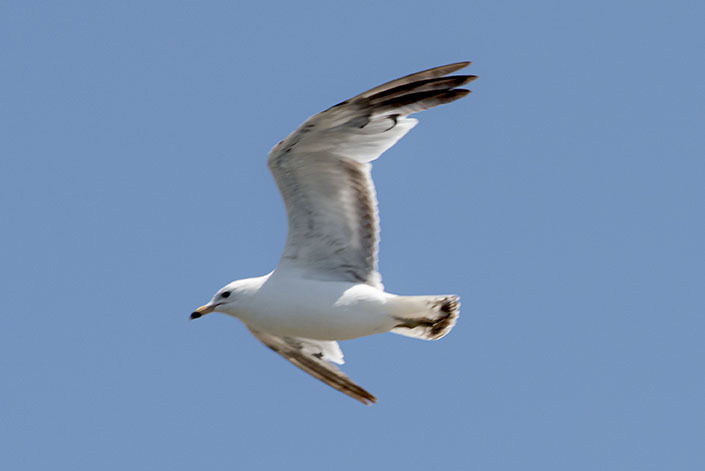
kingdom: Animalia
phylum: Chordata
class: Aves
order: Charadriiformes
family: Laridae
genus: Larus
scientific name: Larus delawarensis
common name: Ring-billed gull
